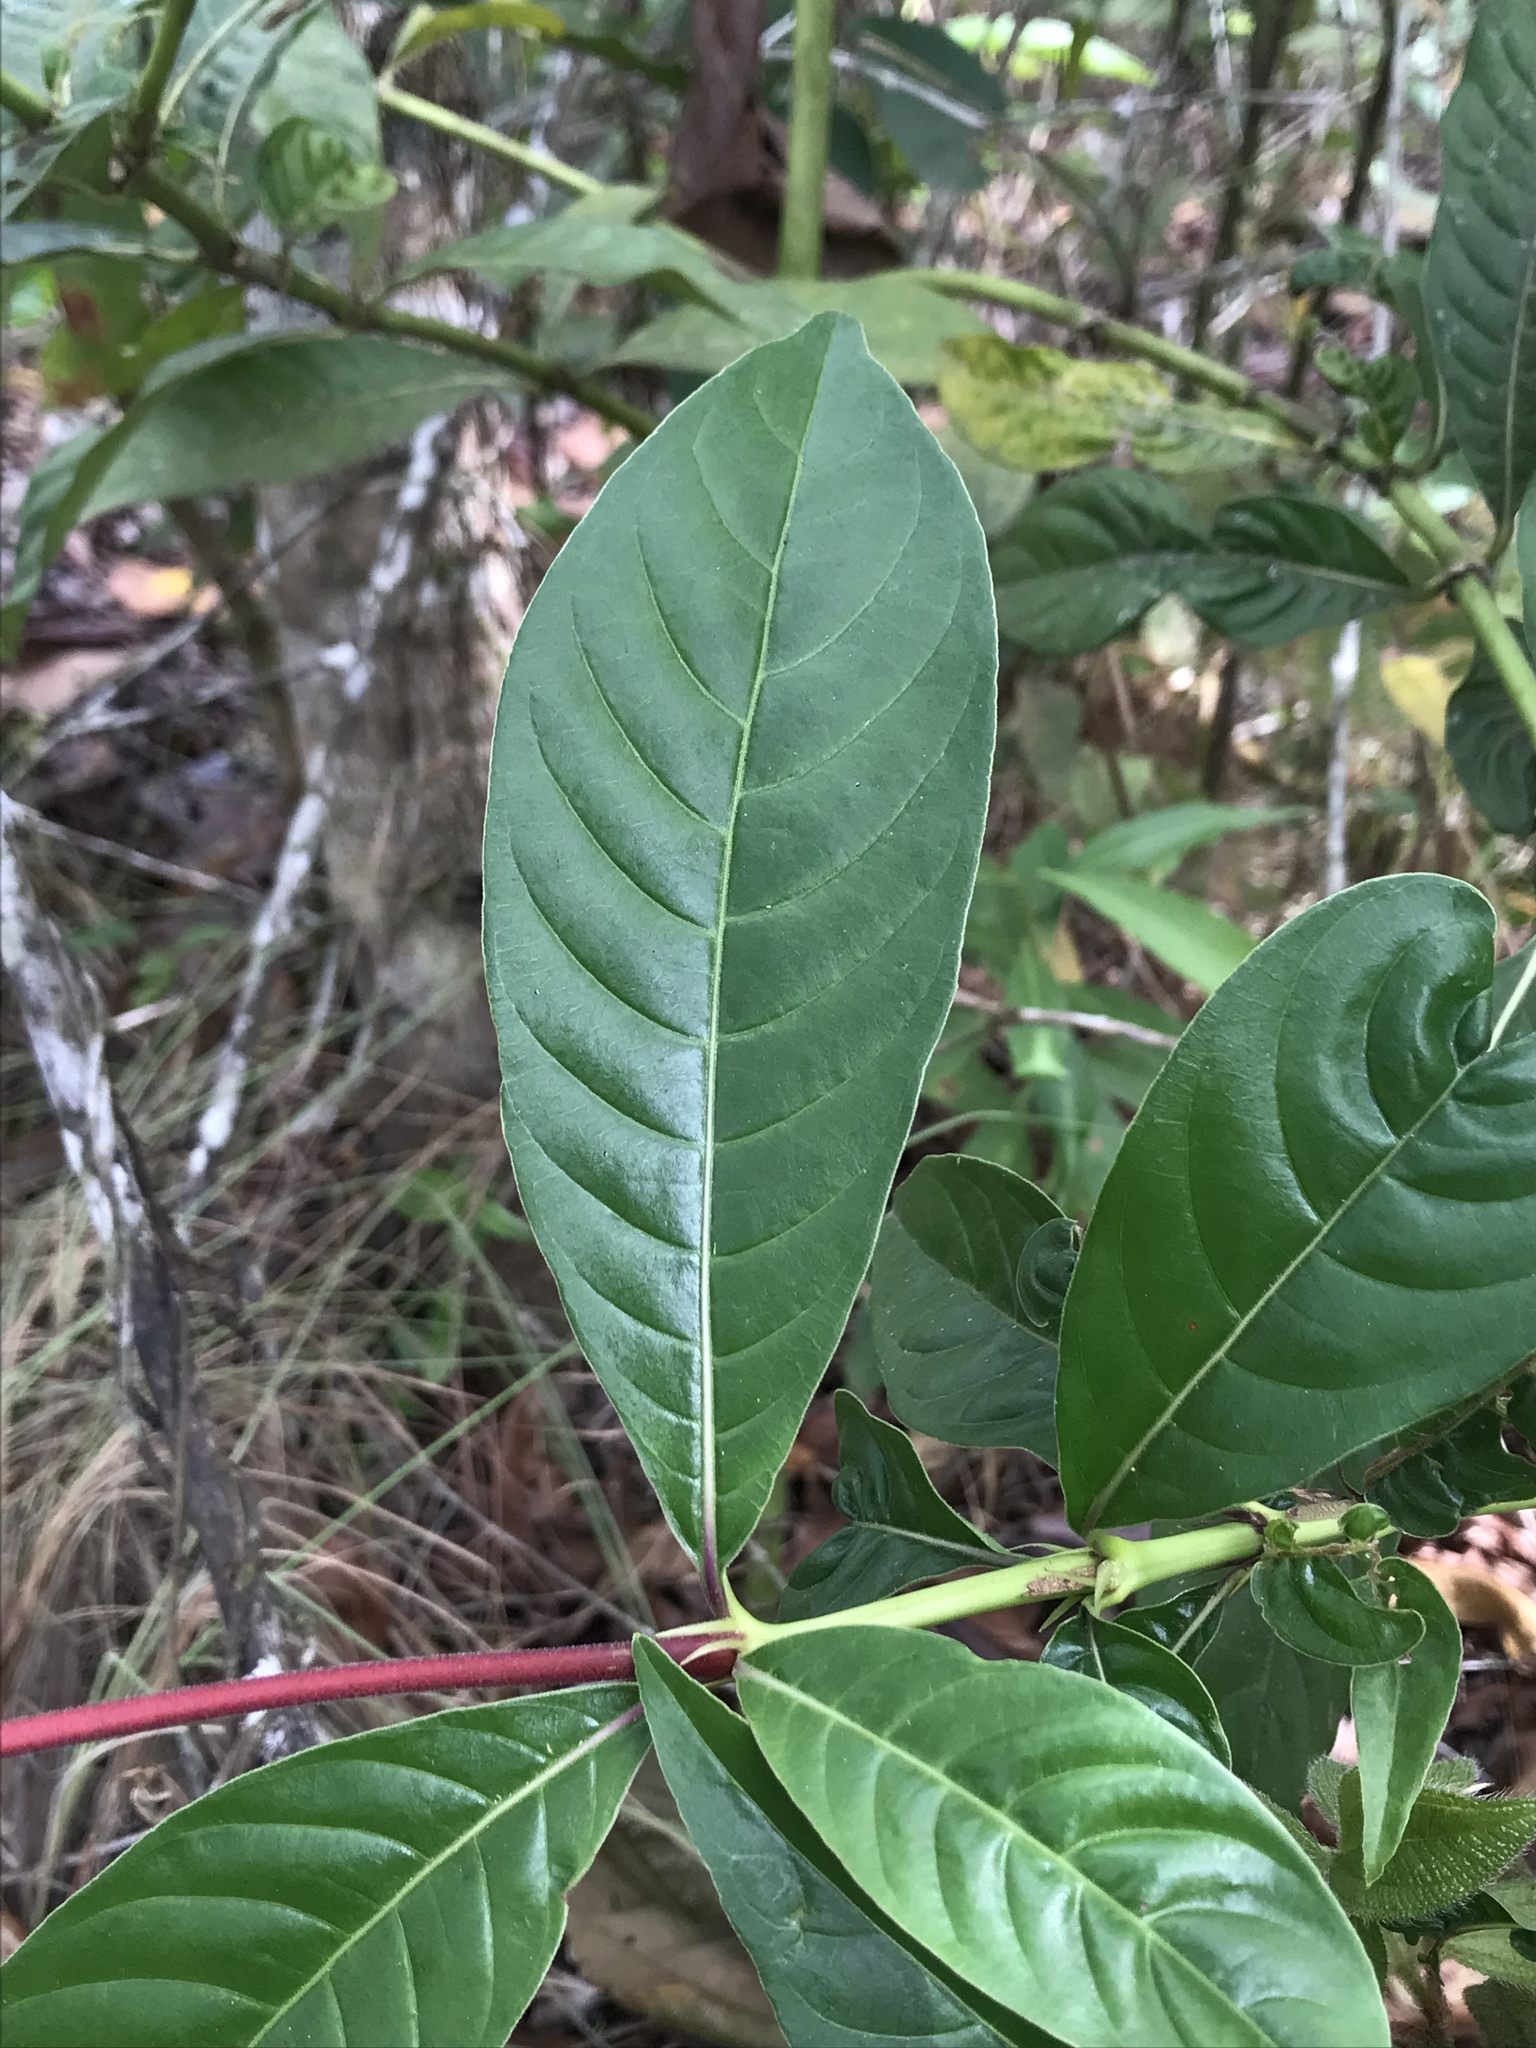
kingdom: Plantae
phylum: Tracheophyta
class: Magnoliopsida
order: Gentianales
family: Rubiaceae
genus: Palicourea
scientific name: Palicourea triphylla
